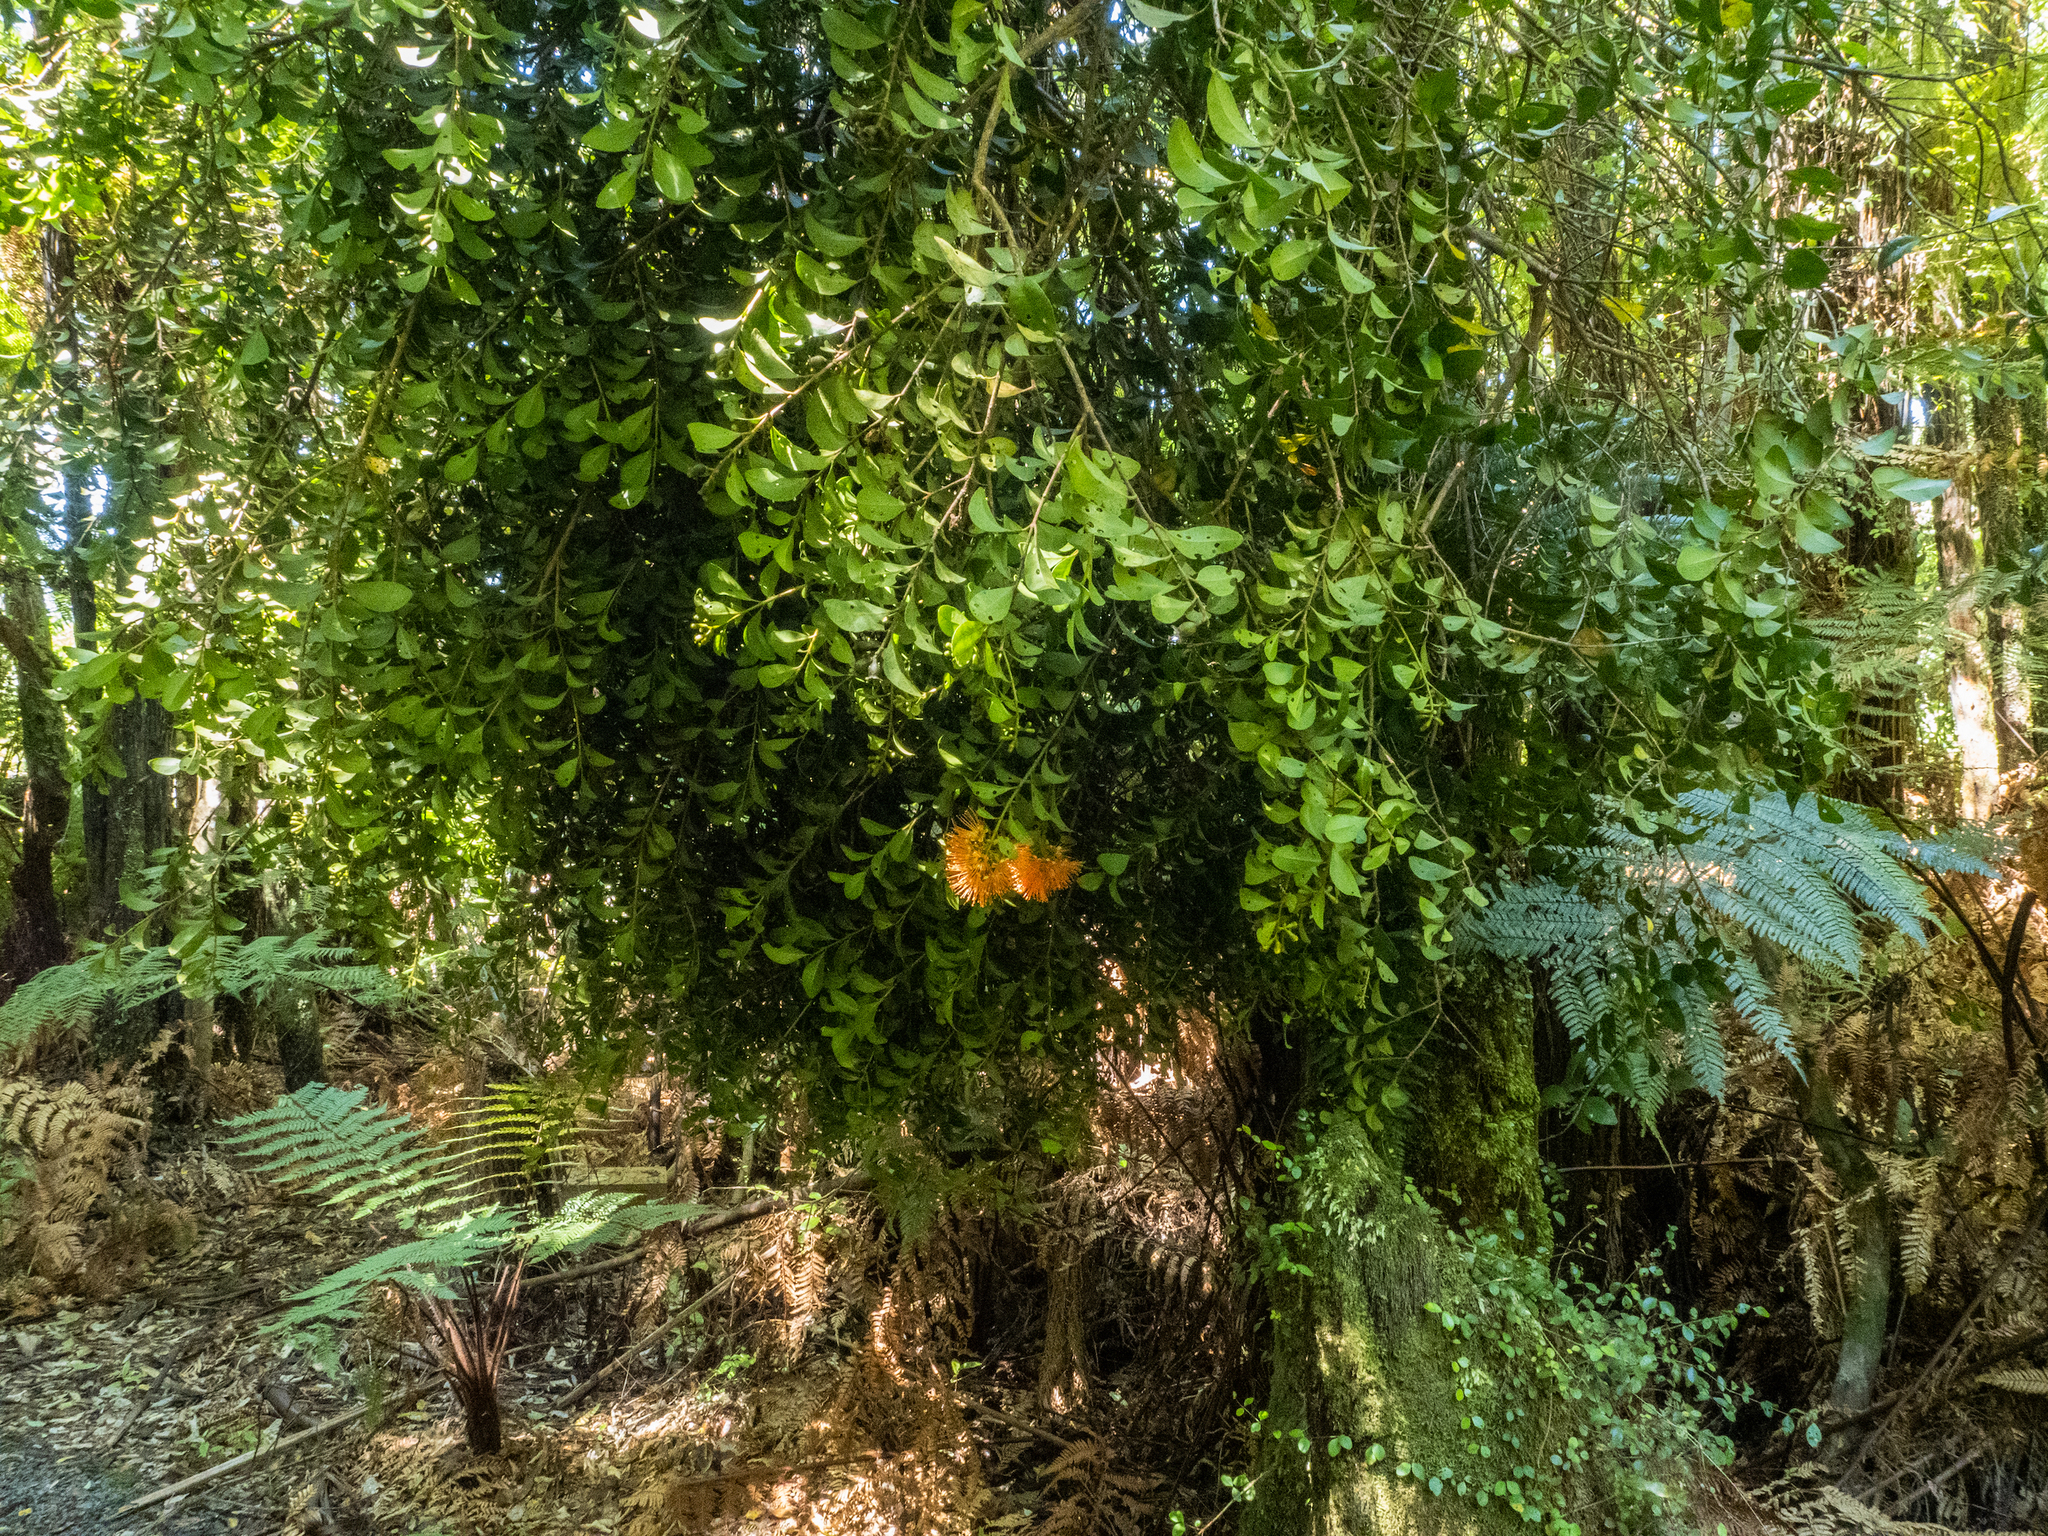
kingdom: Plantae
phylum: Tracheophyta
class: Magnoliopsida
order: Myrtales
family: Myrtaceae
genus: Metrosideros
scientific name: Metrosideros fulgens
